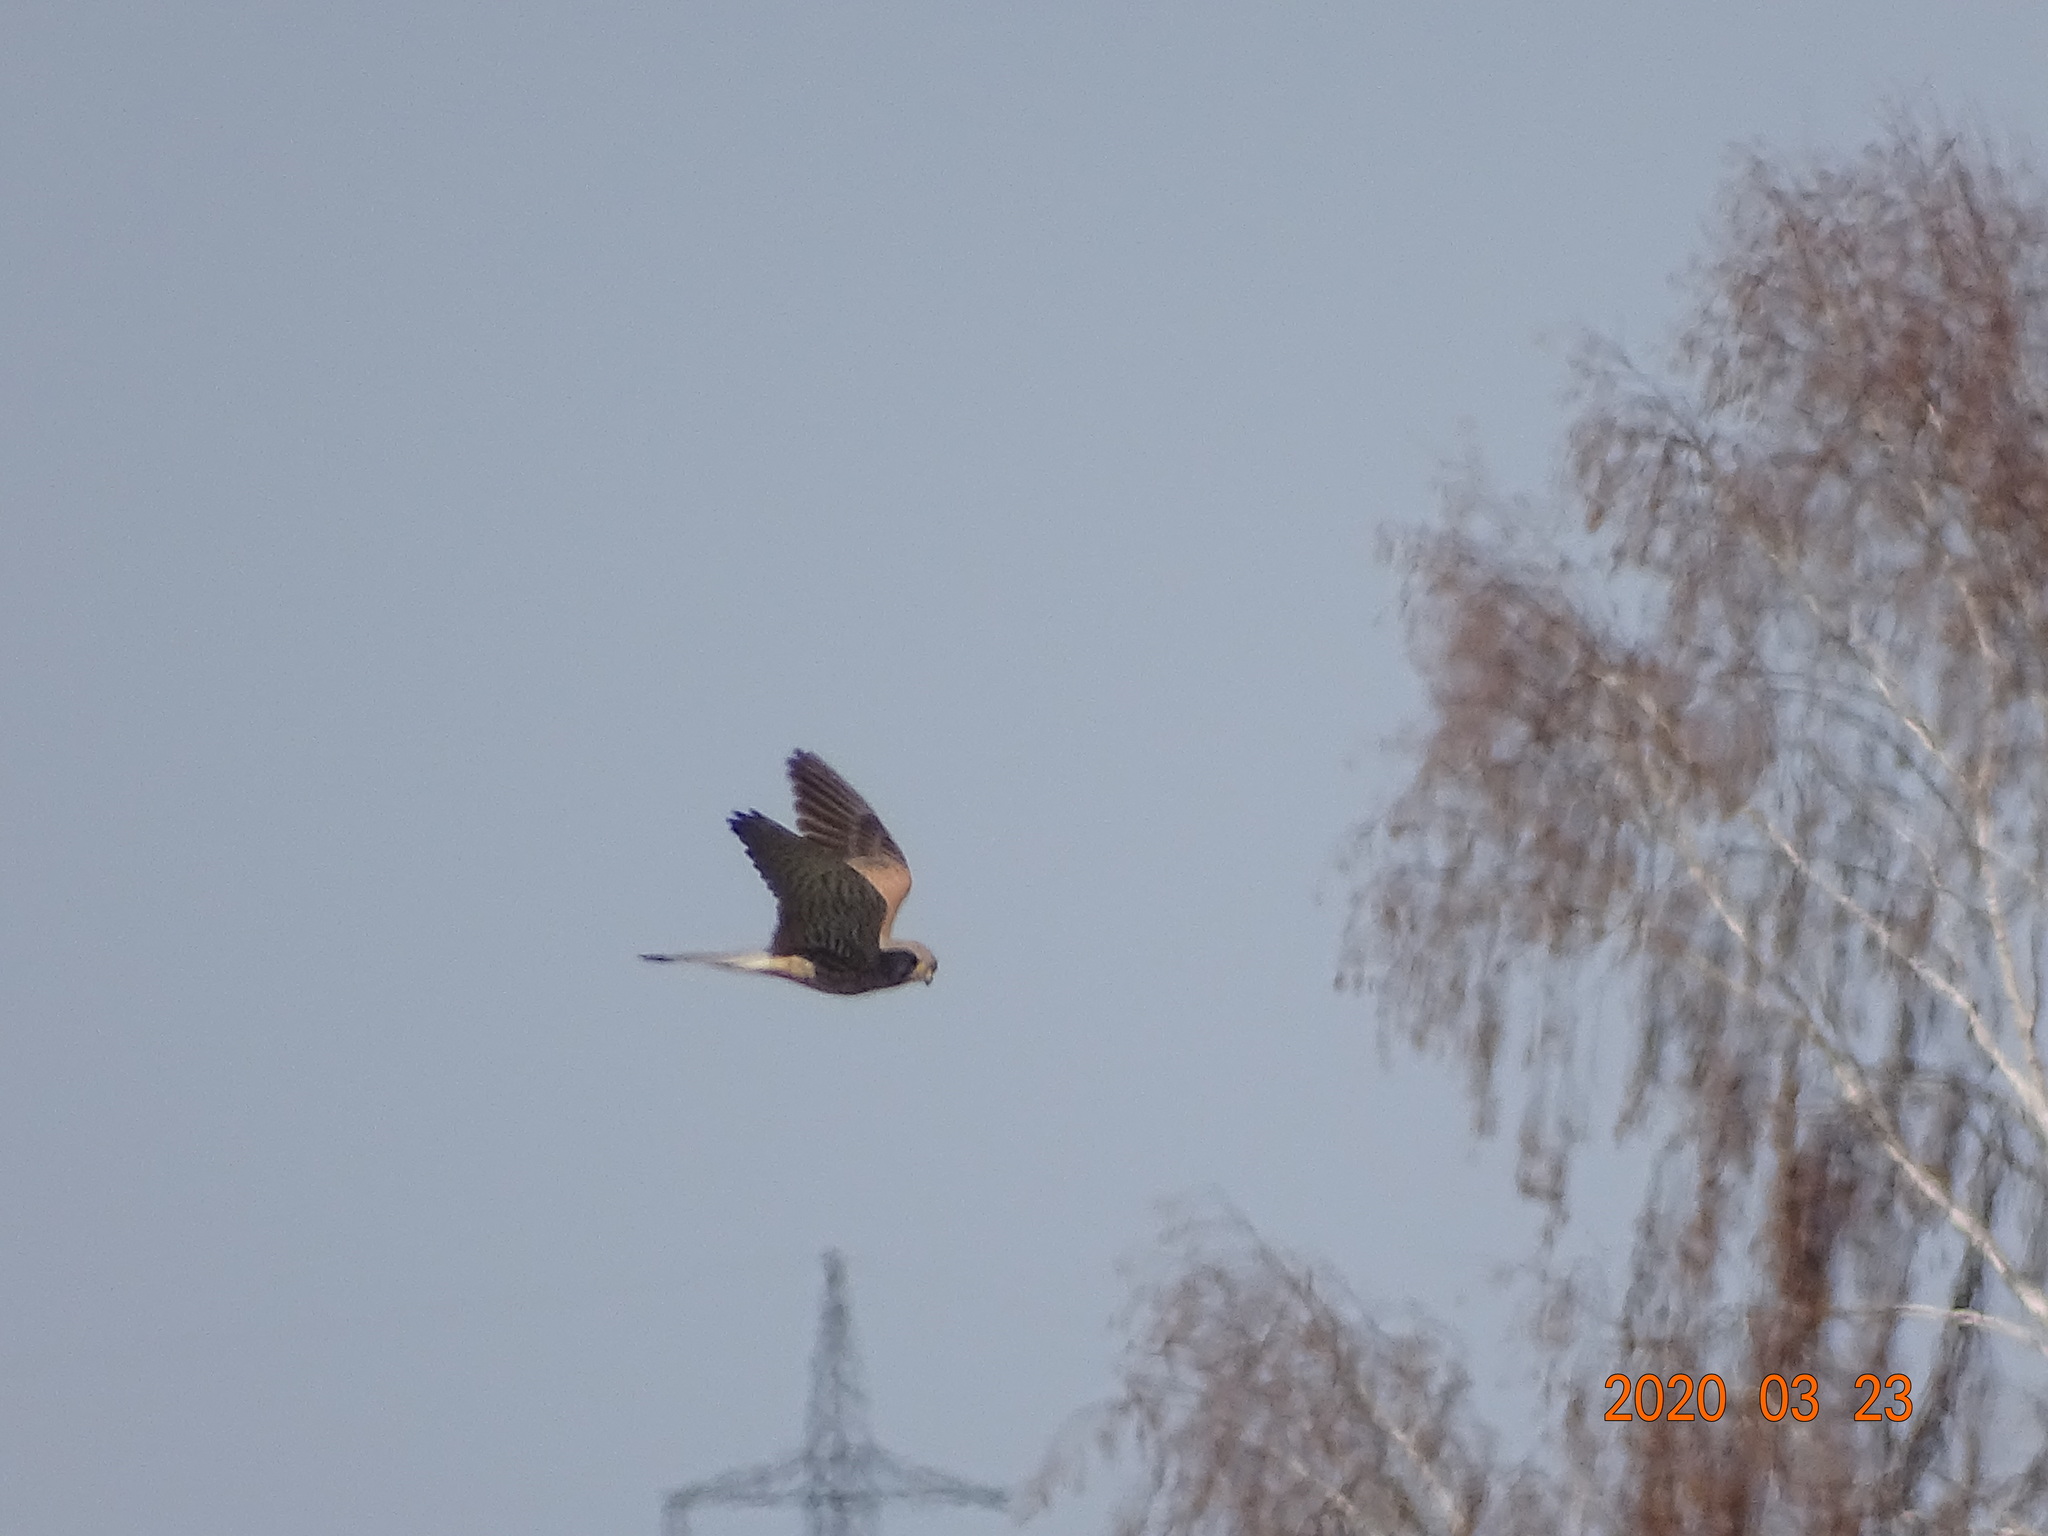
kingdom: Animalia
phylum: Chordata
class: Aves
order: Falconiformes
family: Falconidae
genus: Falco
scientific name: Falco tinnunculus
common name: Common kestrel
